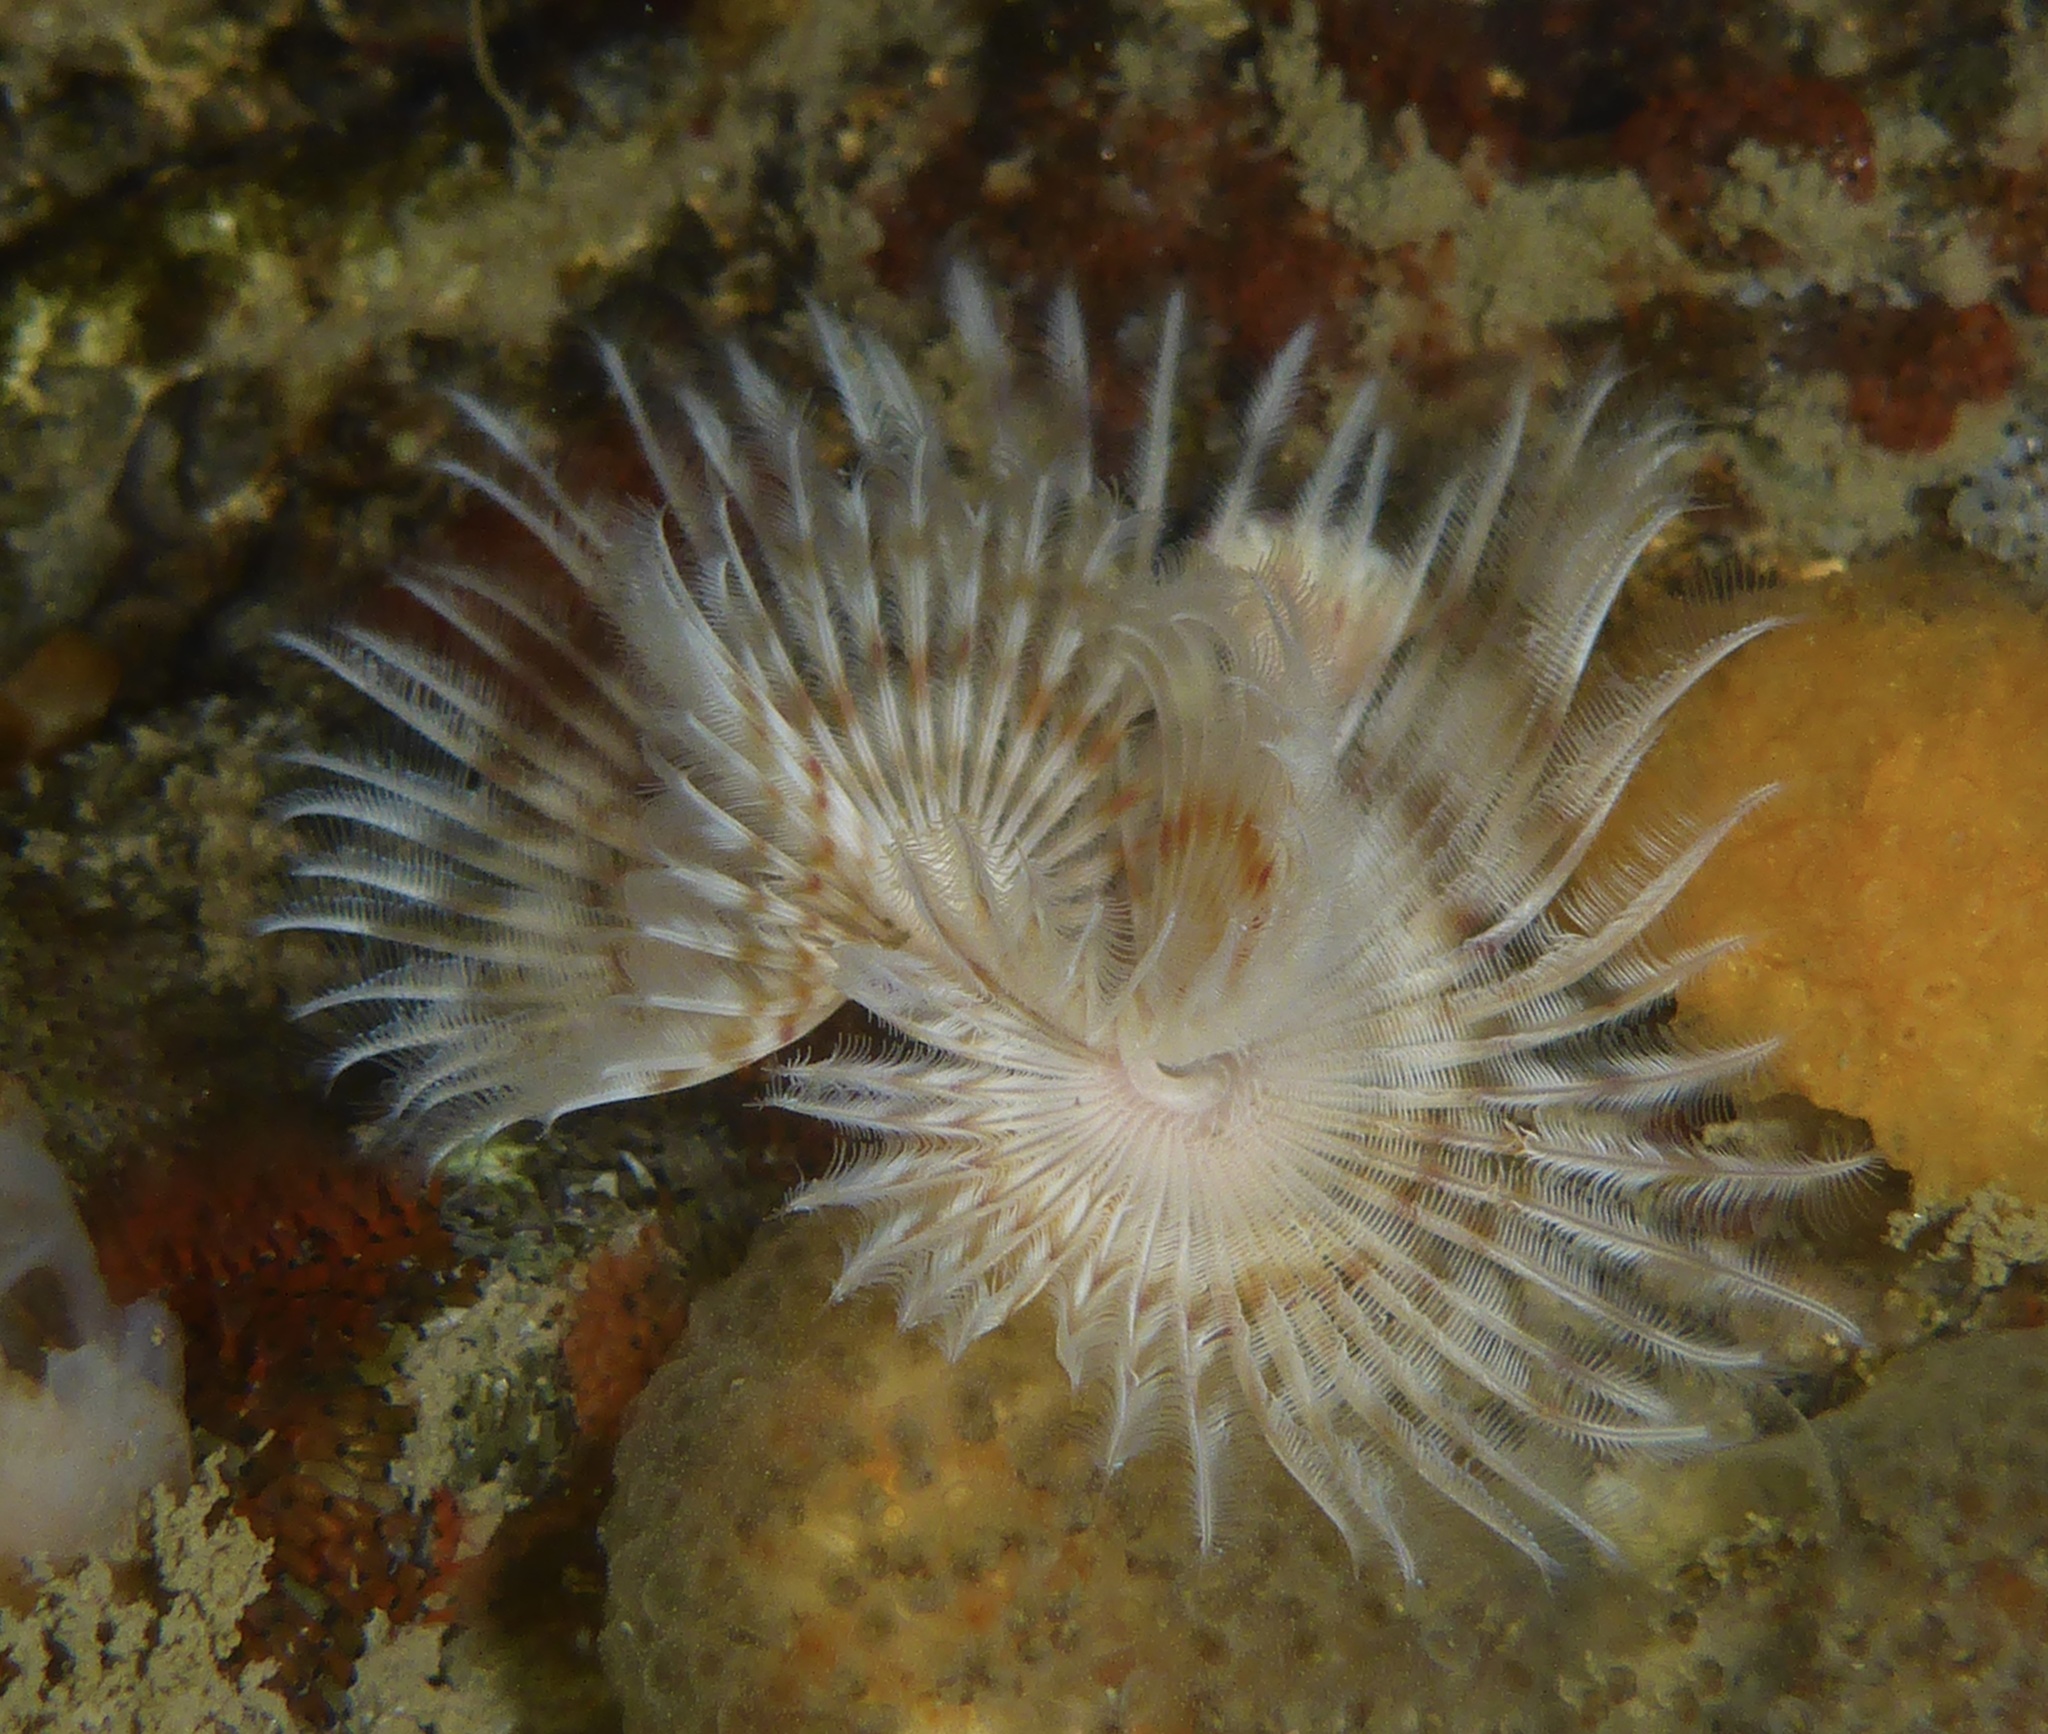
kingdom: Animalia
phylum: Annelida
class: Polychaeta
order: Sabellida
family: Serpulidae
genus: Serpula
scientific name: Serpula columbiana
